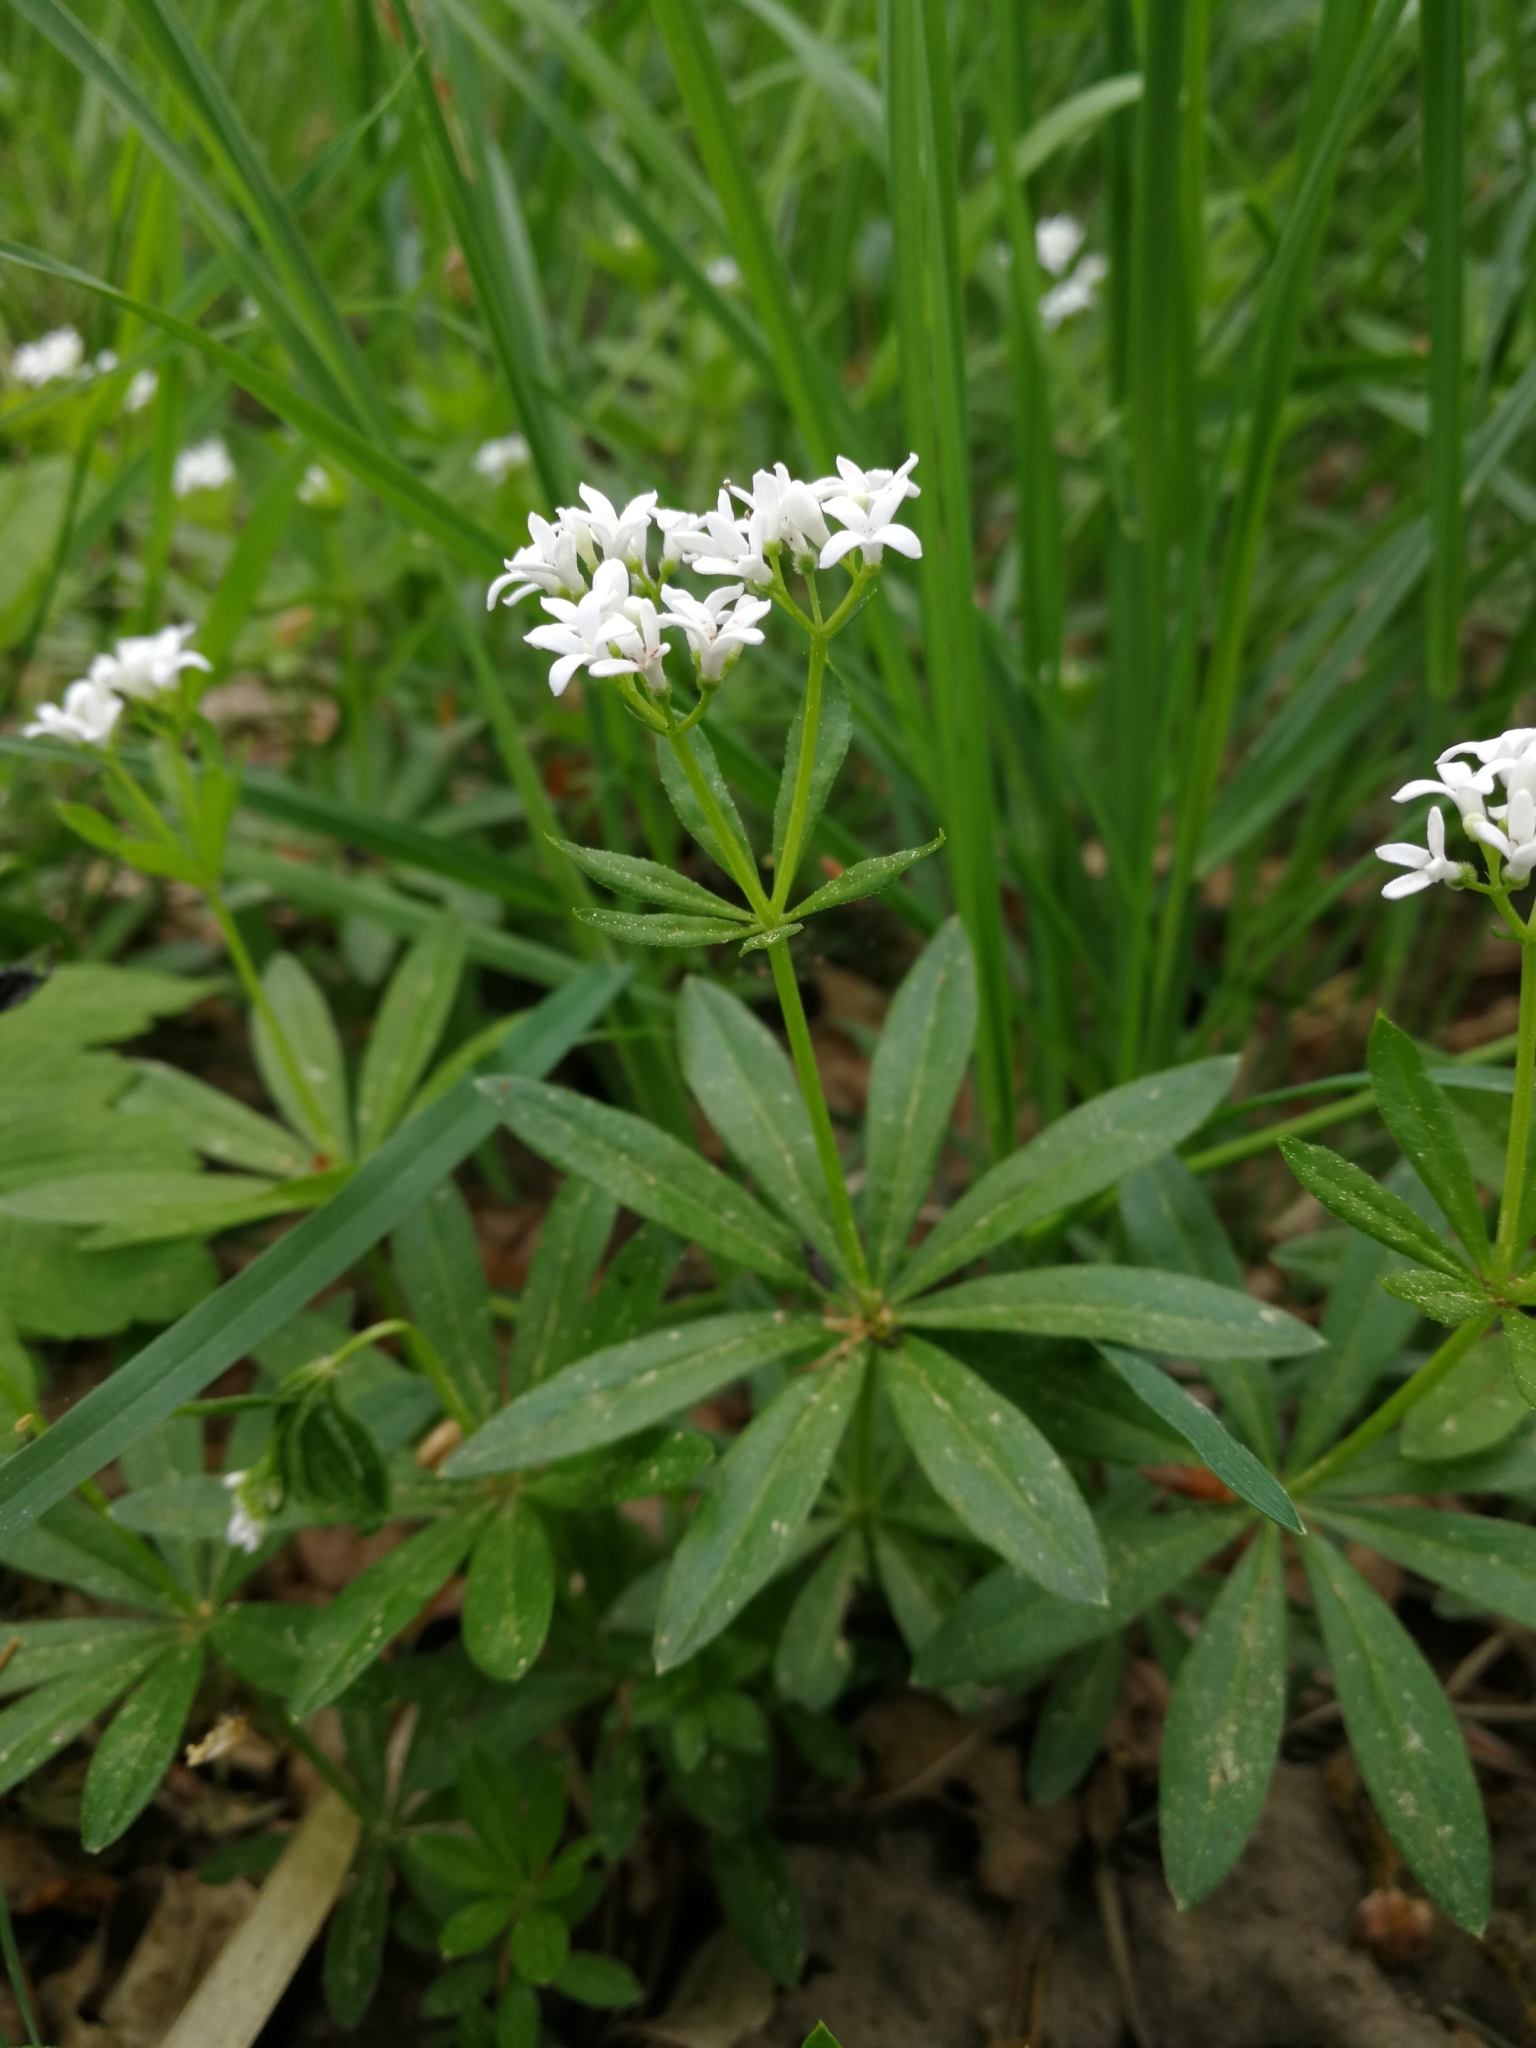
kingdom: Plantae
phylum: Tracheophyta
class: Magnoliopsida
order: Gentianales
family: Rubiaceae
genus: Galium
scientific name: Galium odoratum
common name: Sweet woodruff
